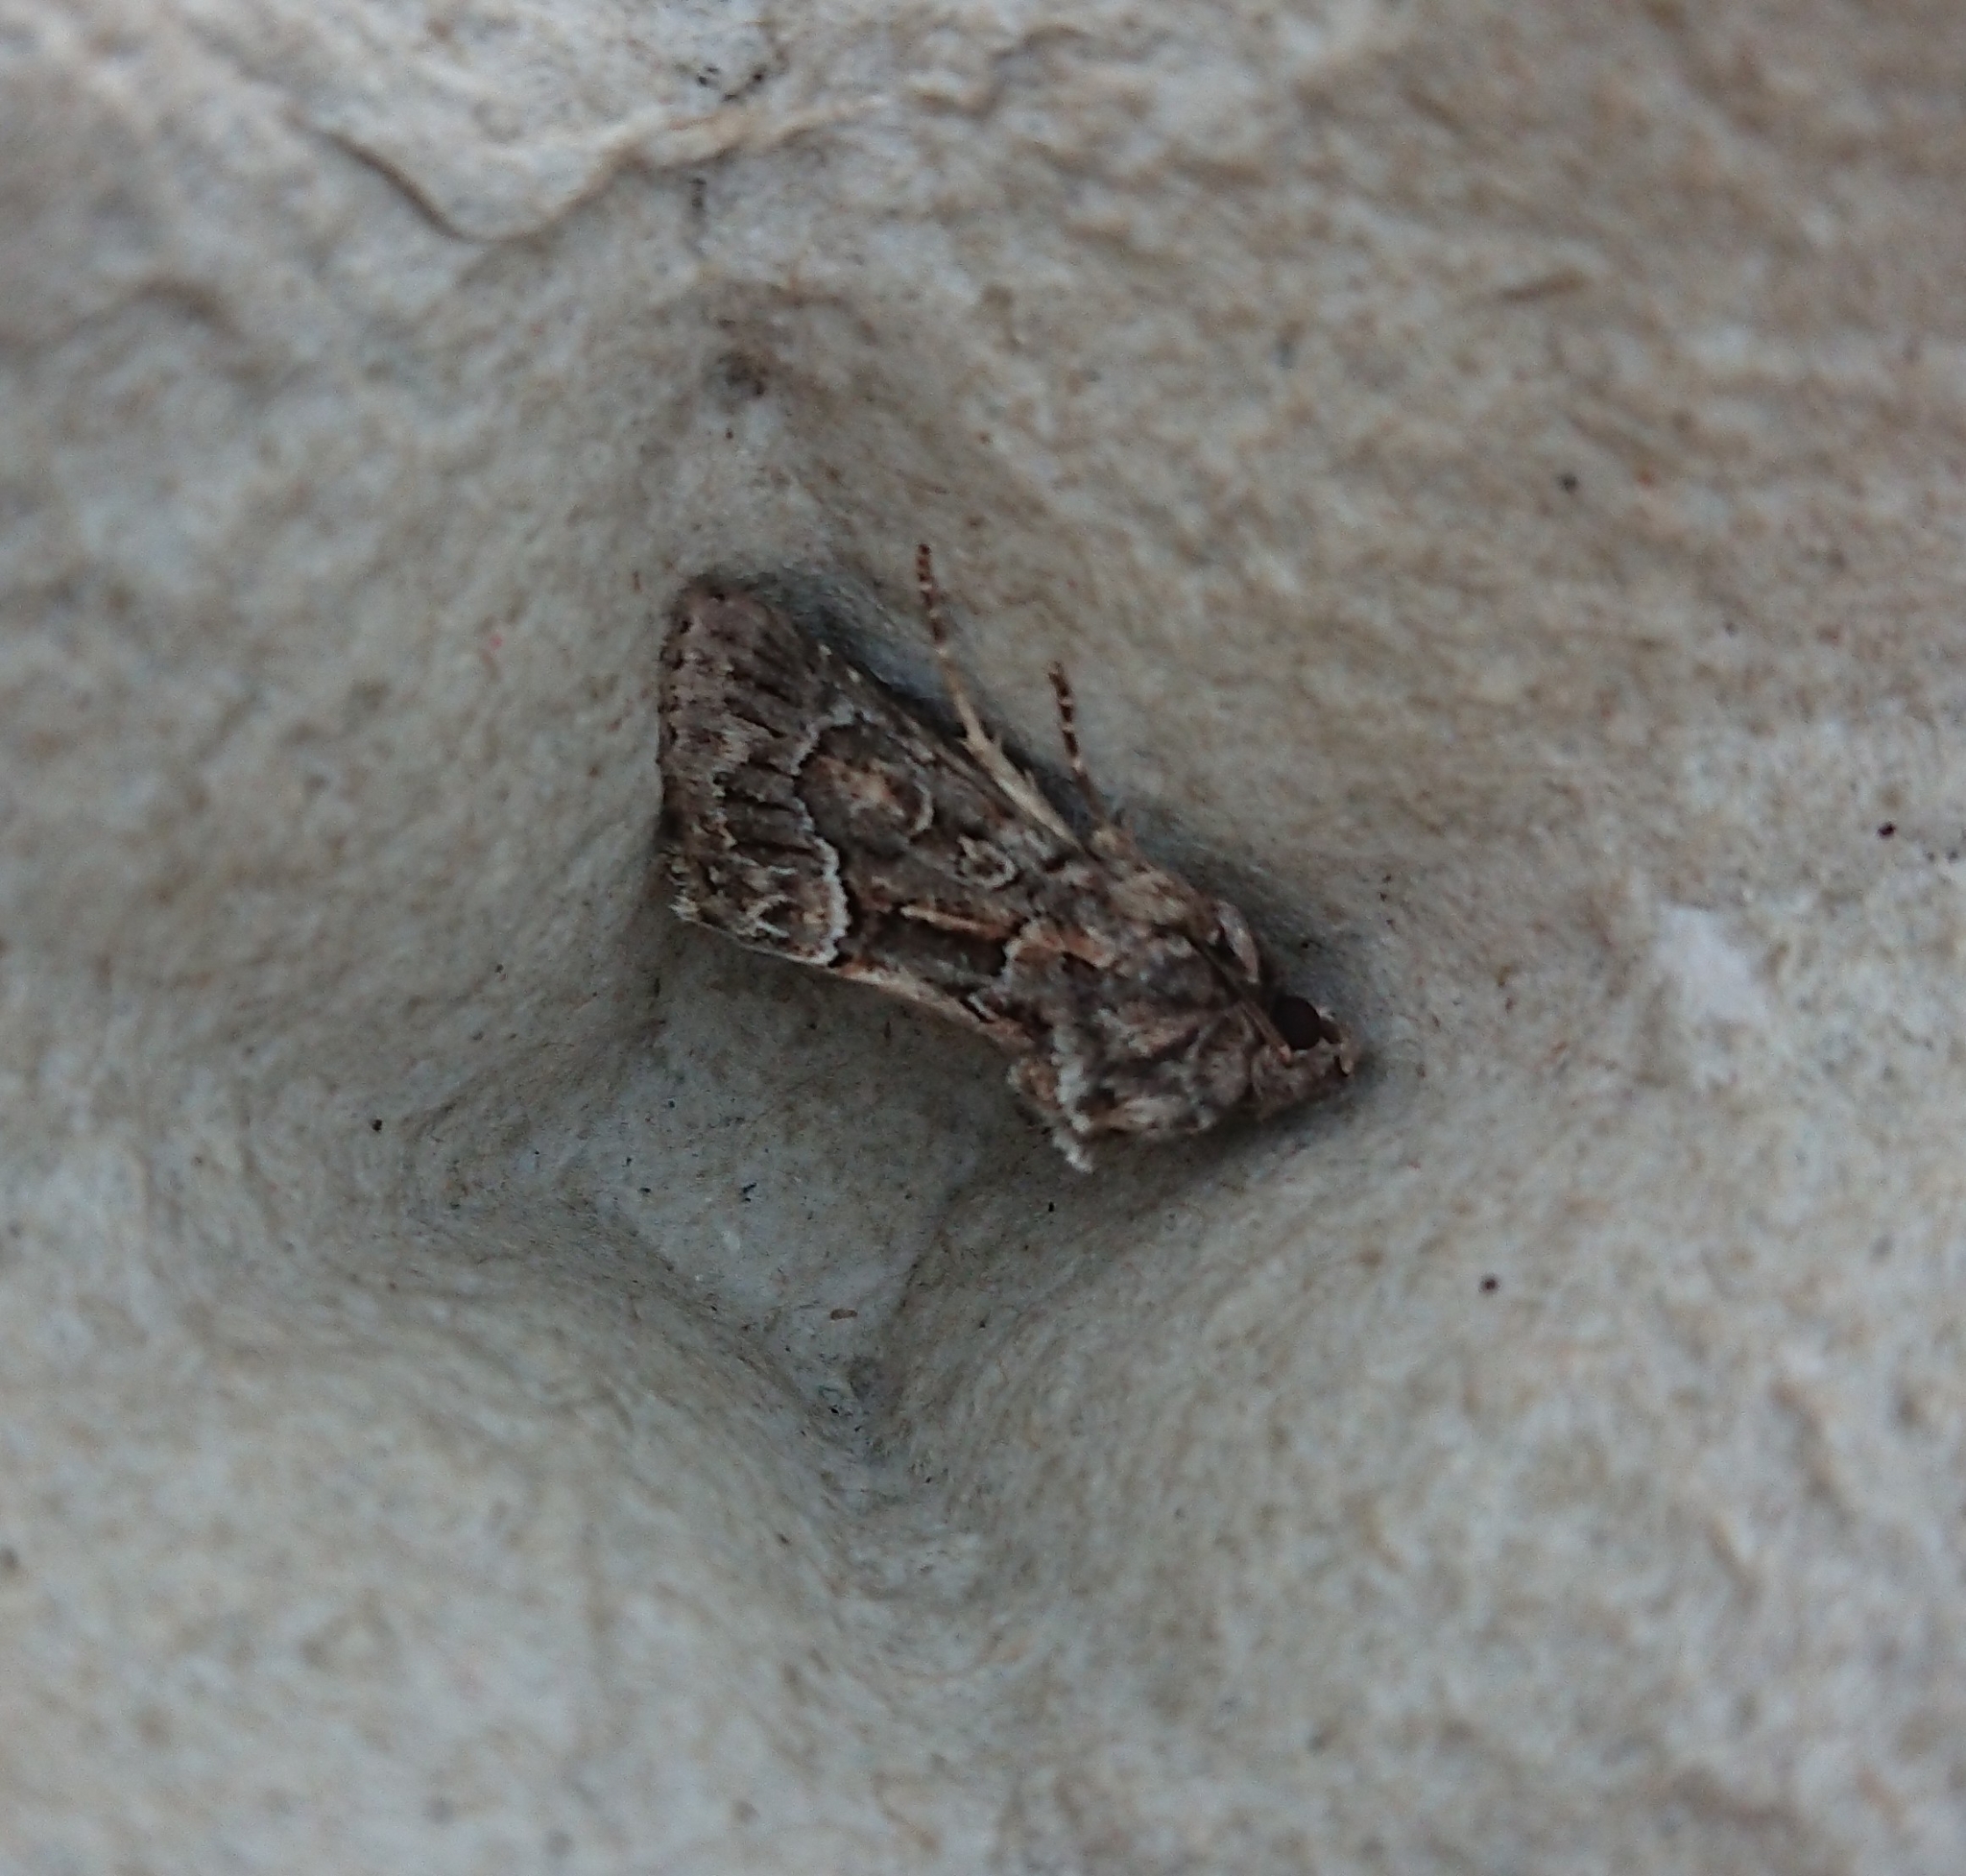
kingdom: Animalia
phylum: Arthropoda
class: Insecta
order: Lepidoptera
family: Noctuidae
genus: Thalpophila
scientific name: Thalpophila matura
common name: Straw underwing
